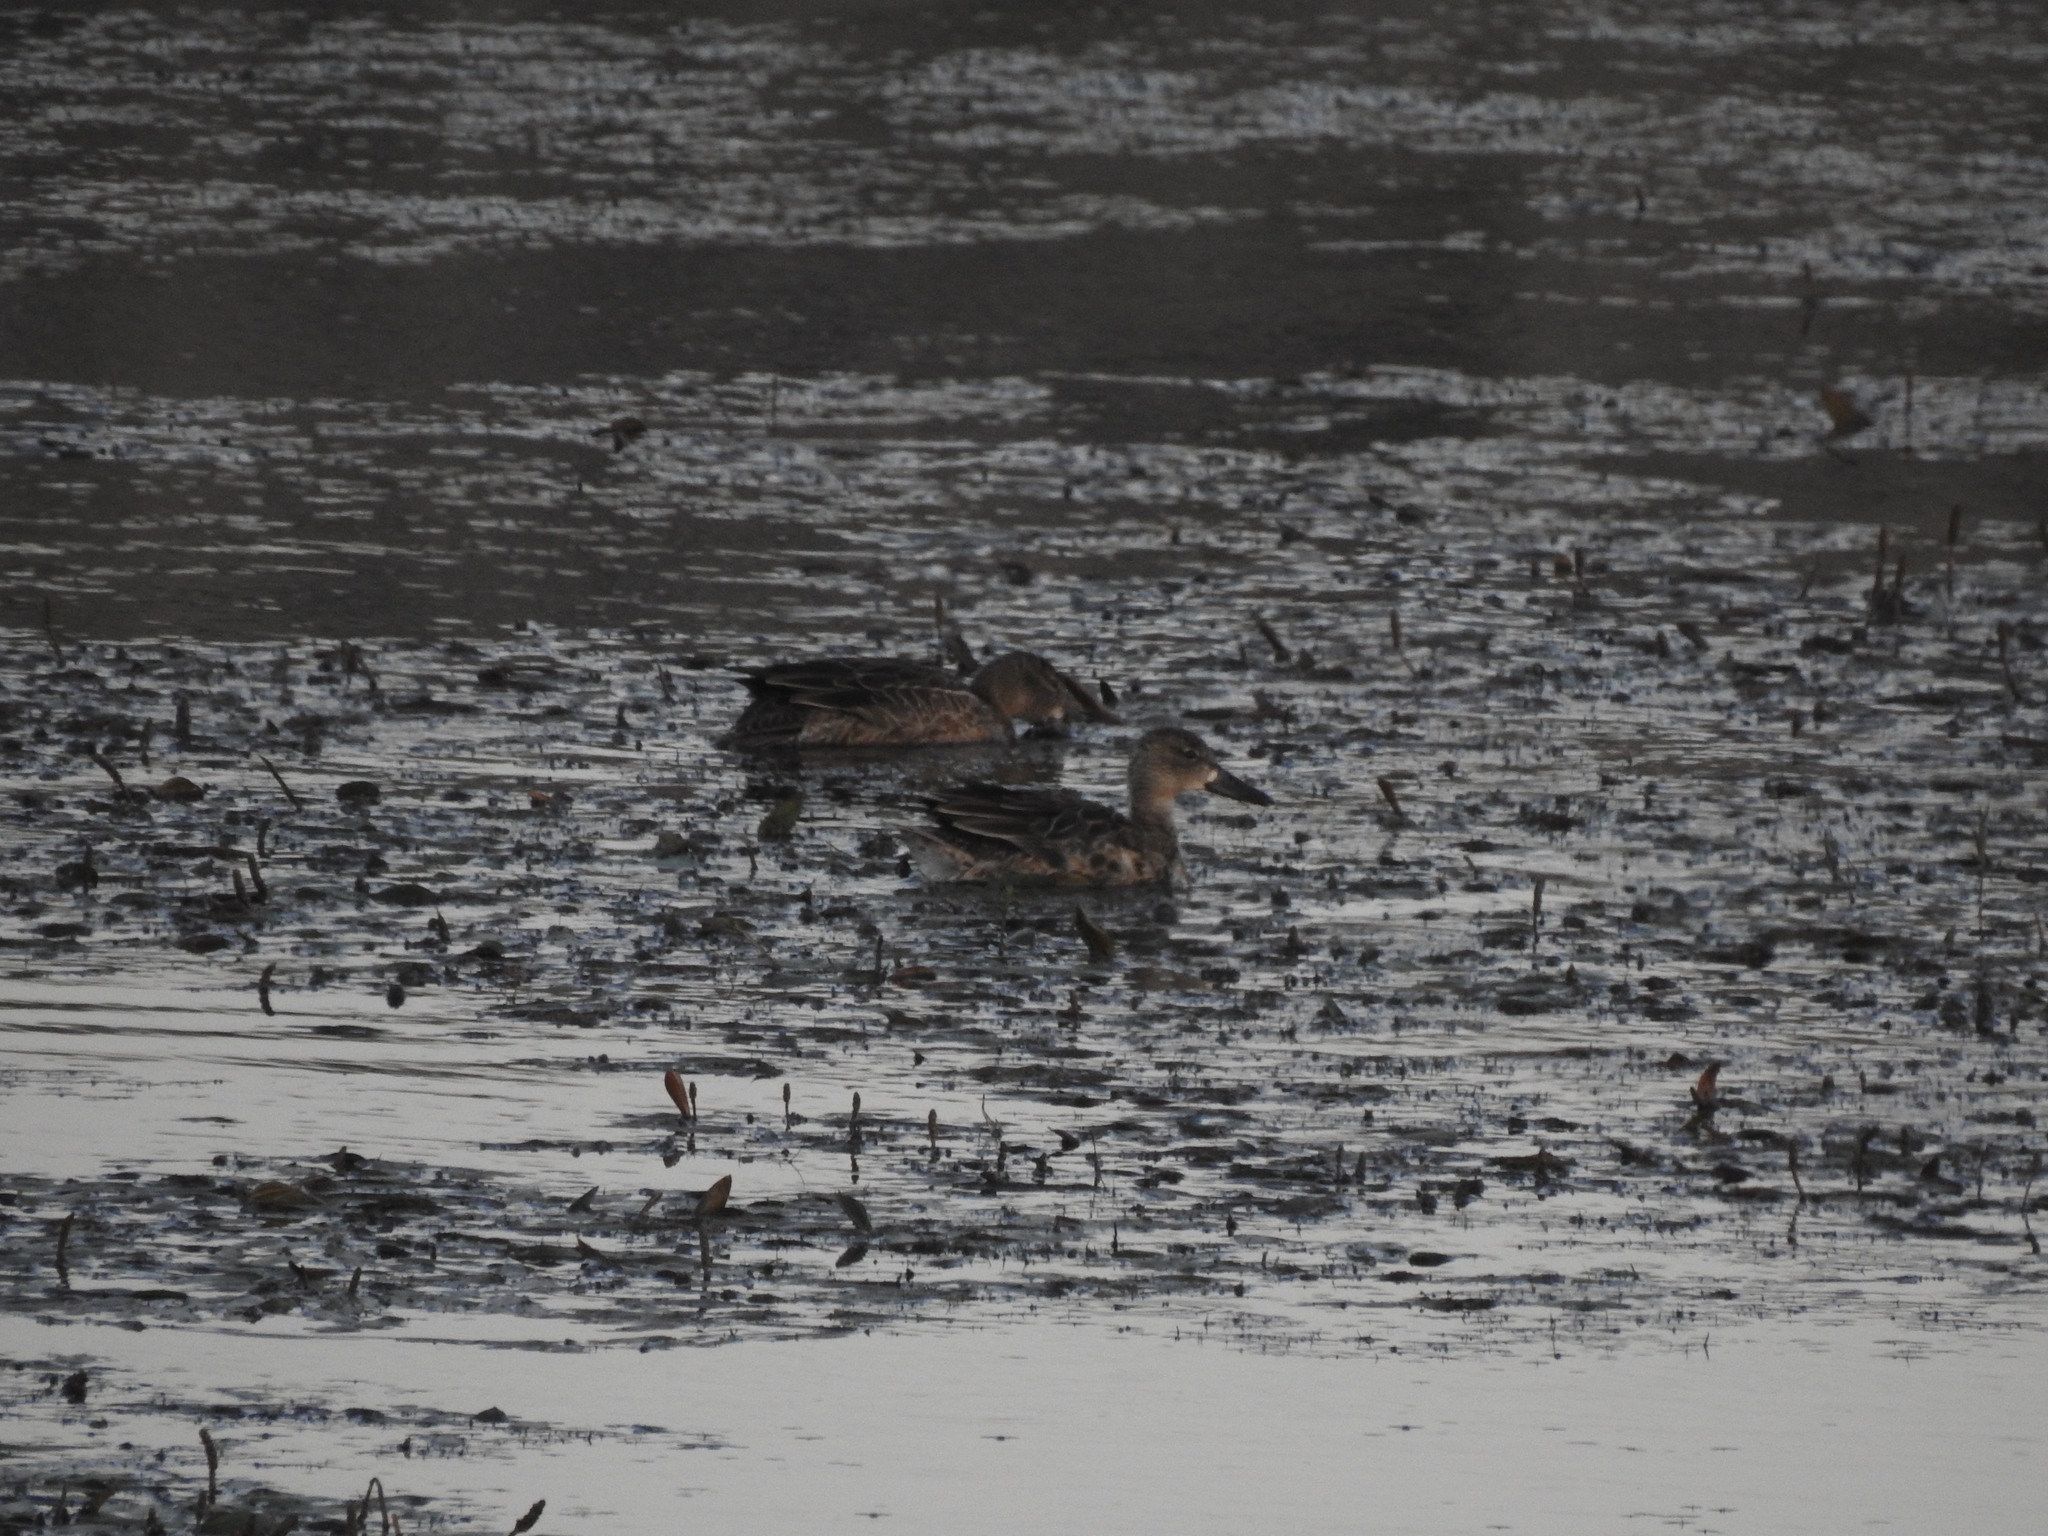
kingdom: Animalia
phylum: Chordata
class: Aves
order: Anseriformes
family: Anatidae
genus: Spatula
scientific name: Spatula discors
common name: Blue-winged teal
